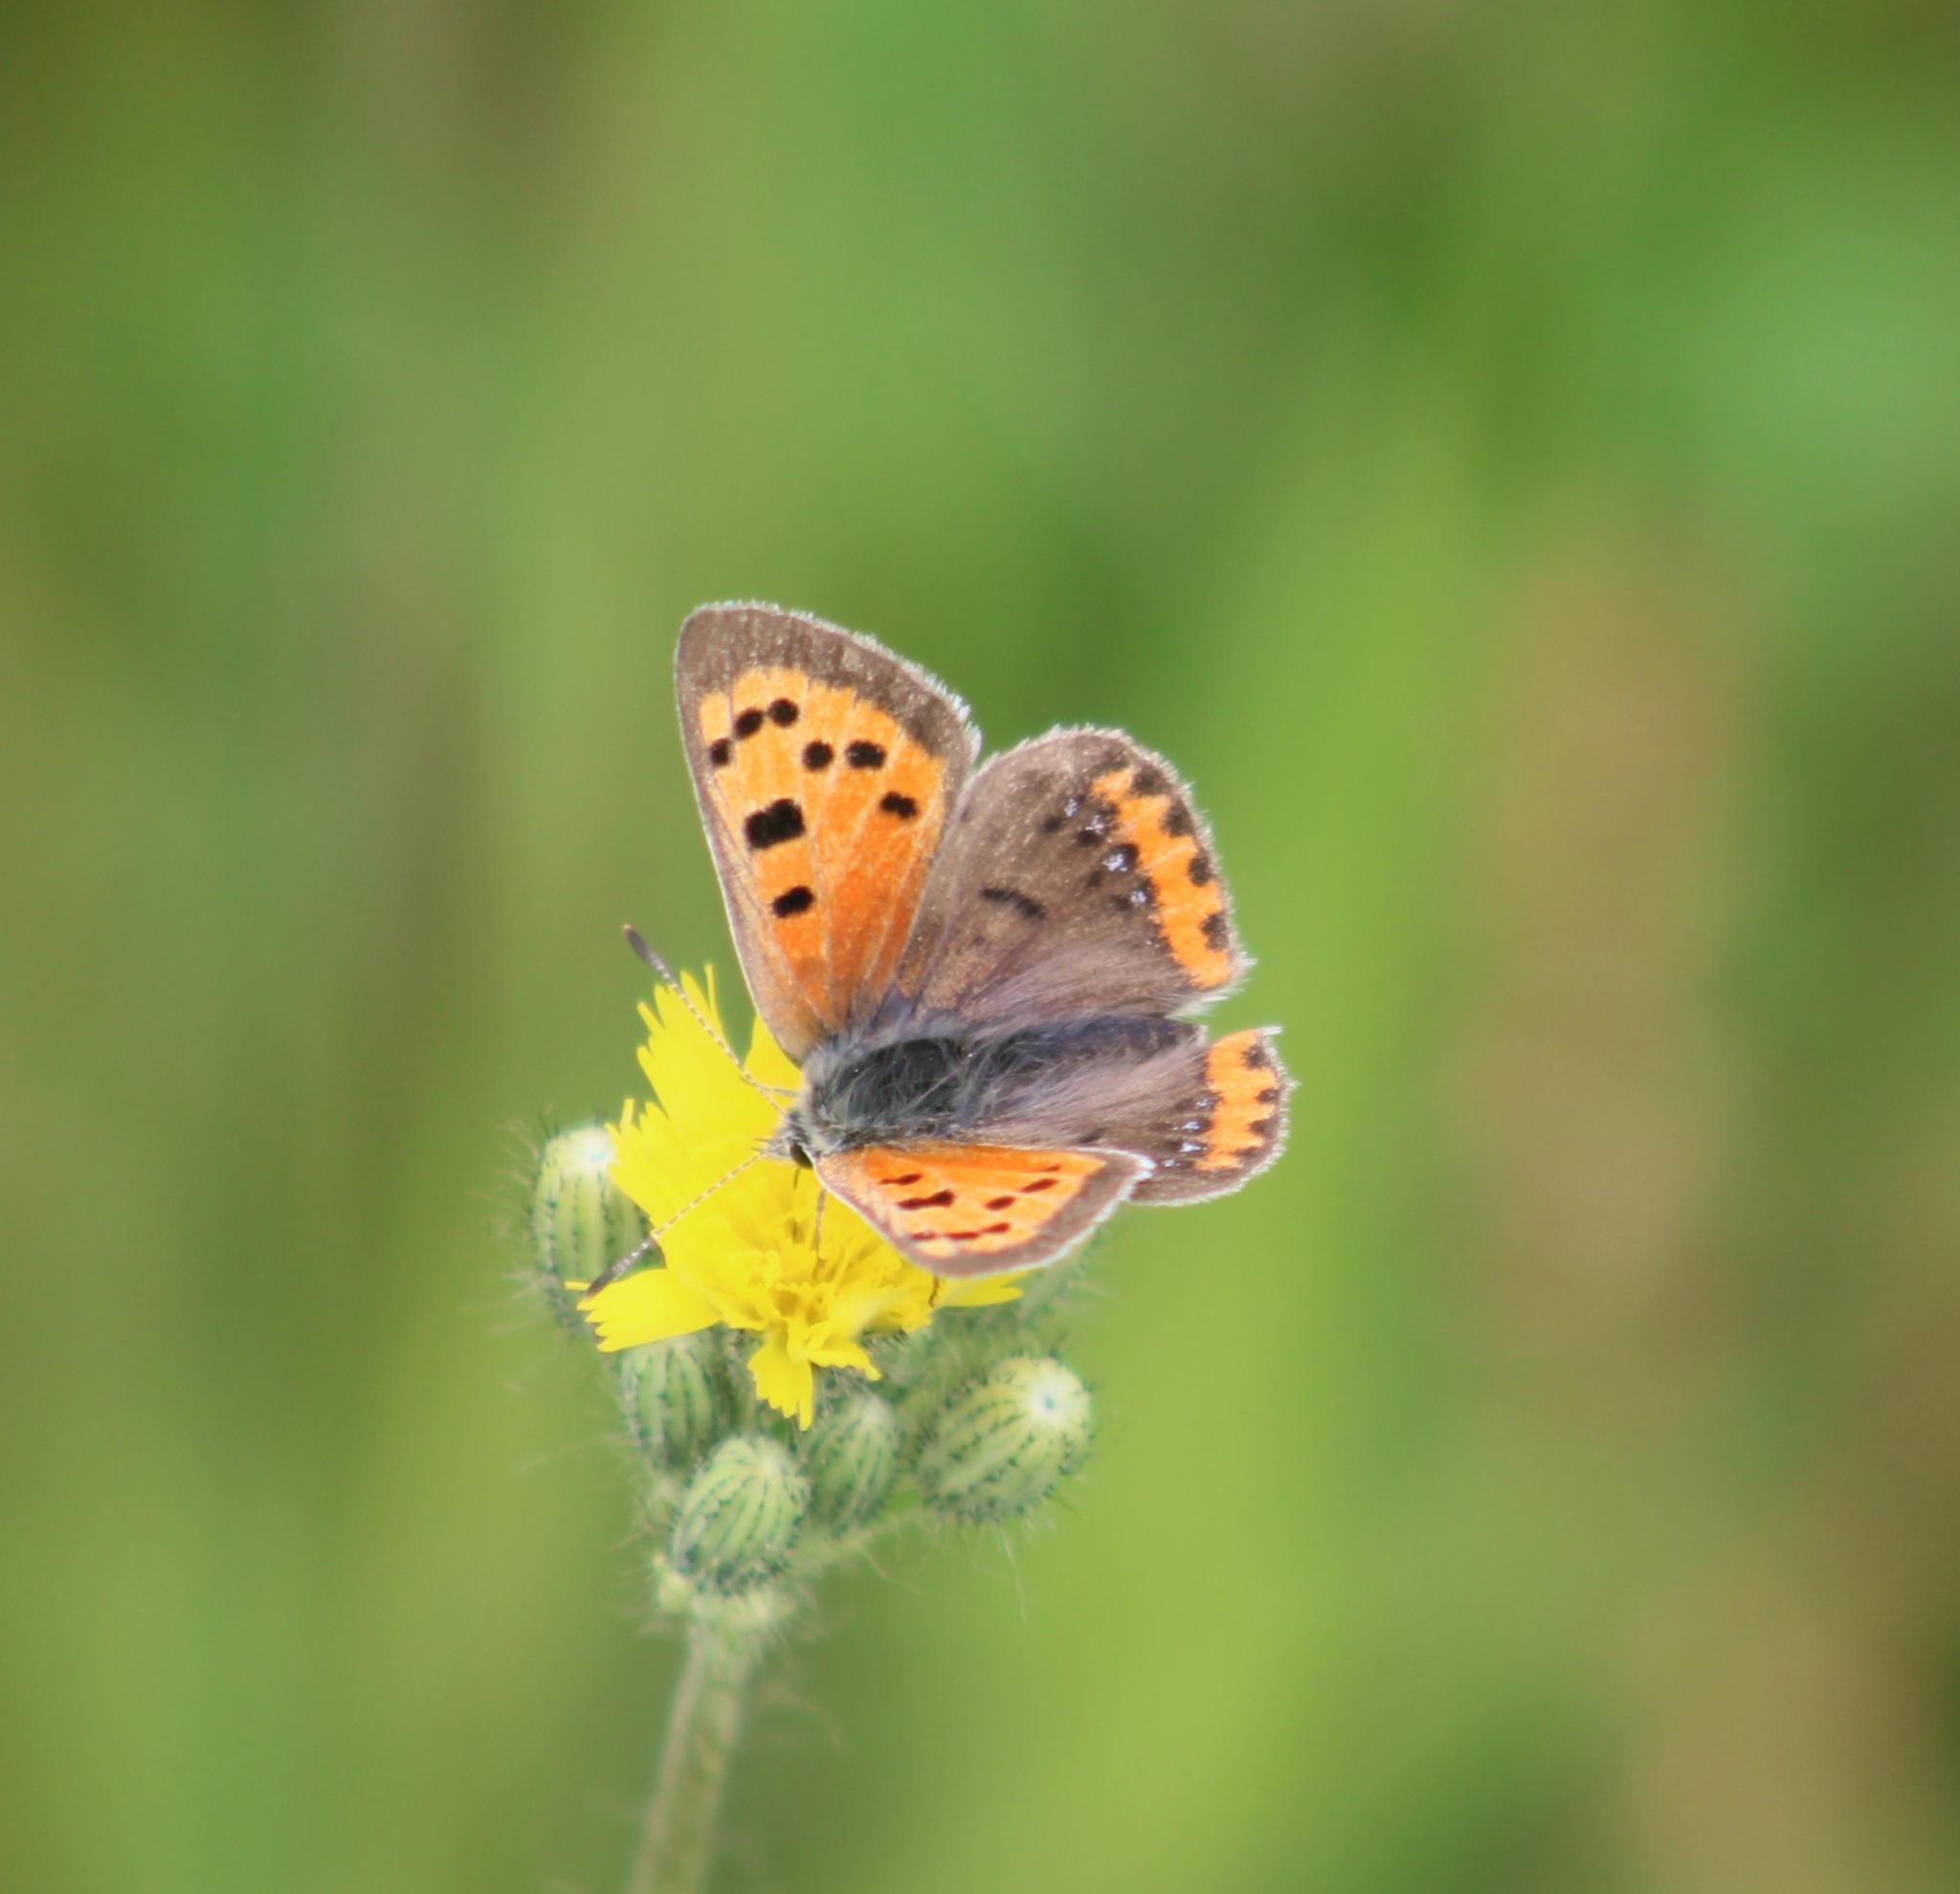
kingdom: Animalia
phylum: Arthropoda
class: Insecta
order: Lepidoptera
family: Lycaenidae
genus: Lycaena
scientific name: Lycaena hypophlaeas
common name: American copper
